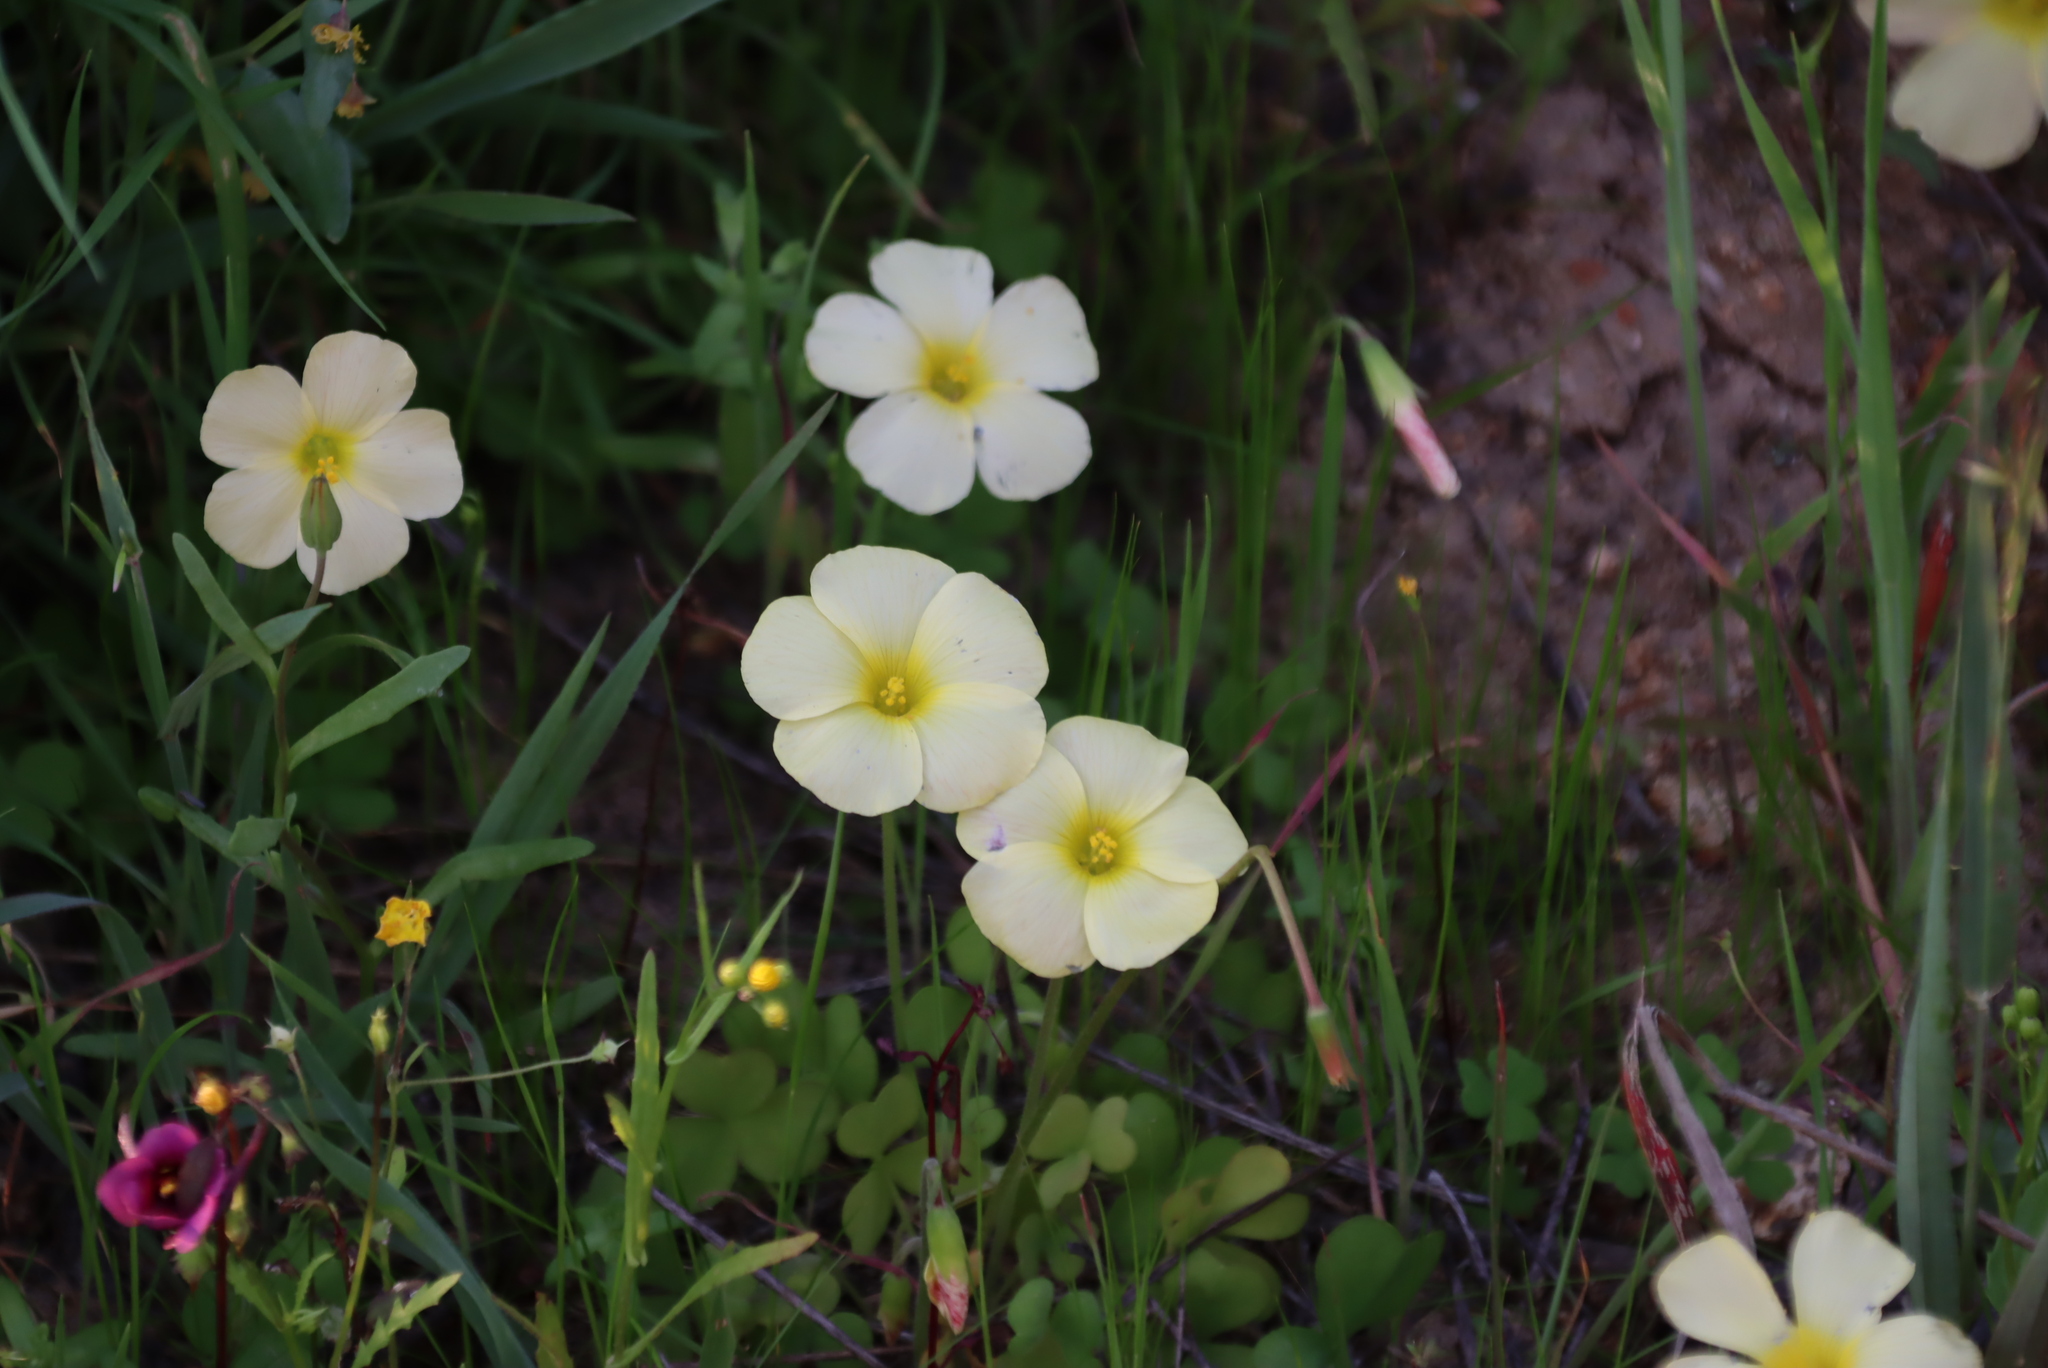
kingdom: Plantae
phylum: Tracheophyta
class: Magnoliopsida
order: Oxalidales
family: Oxalidaceae
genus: Oxalis
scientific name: Oxalis obtusa
